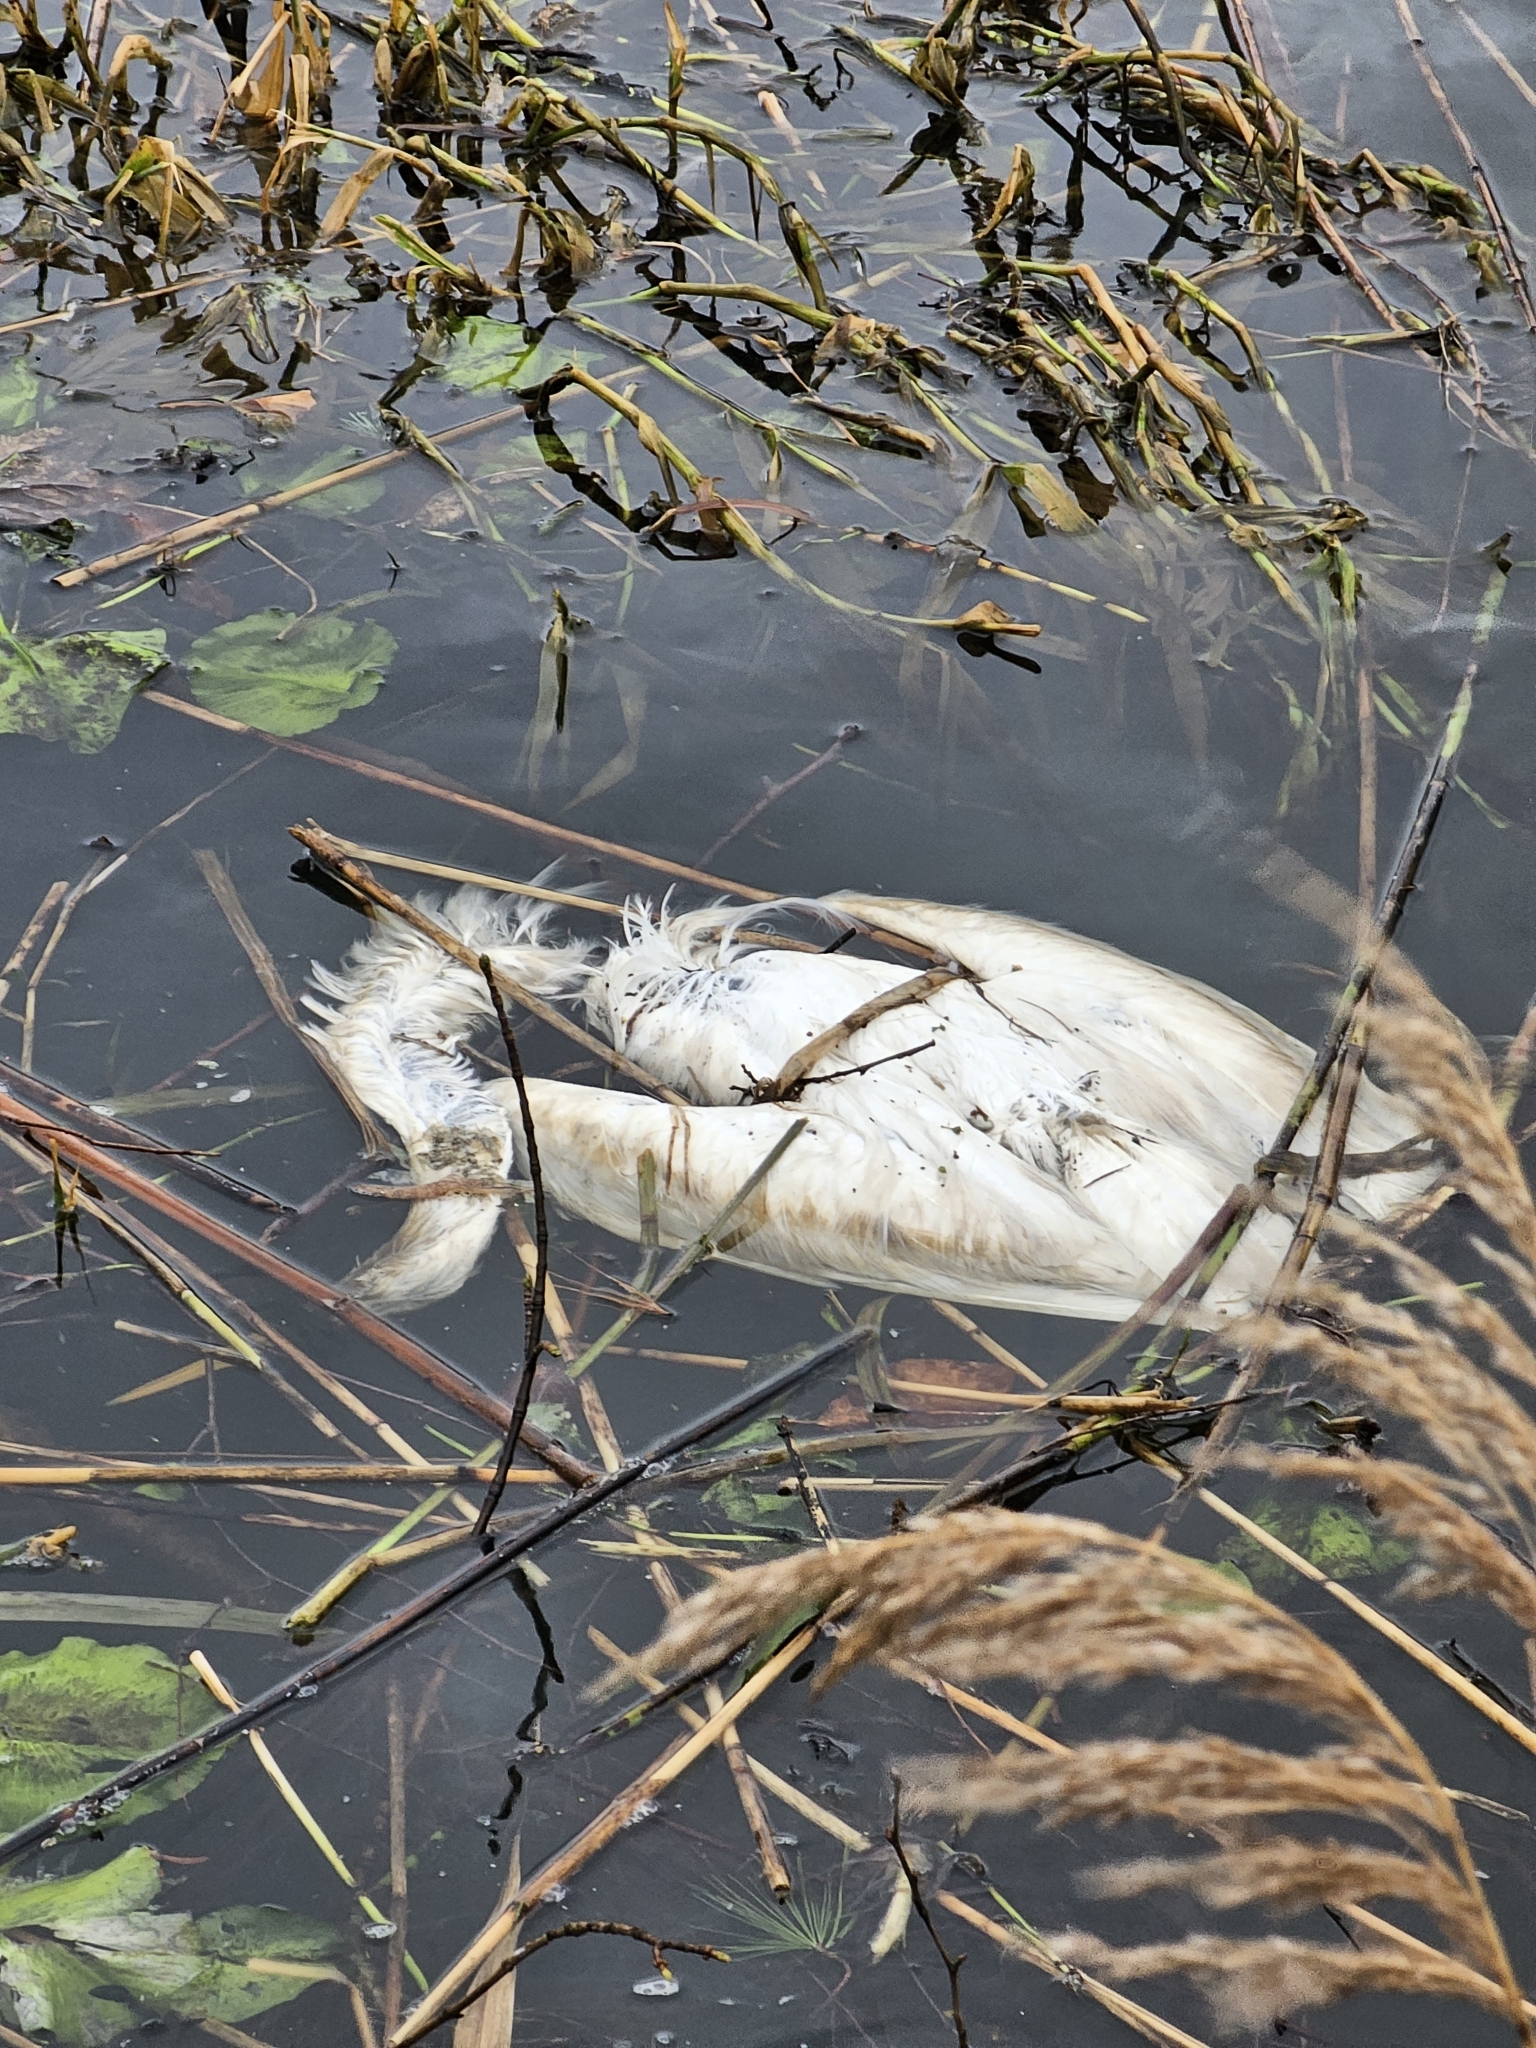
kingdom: Animalia
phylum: Chordata
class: Aves
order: Pelecaniformes
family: Ardeidae
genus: Ardea
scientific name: Ardea alba
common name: Great egret
